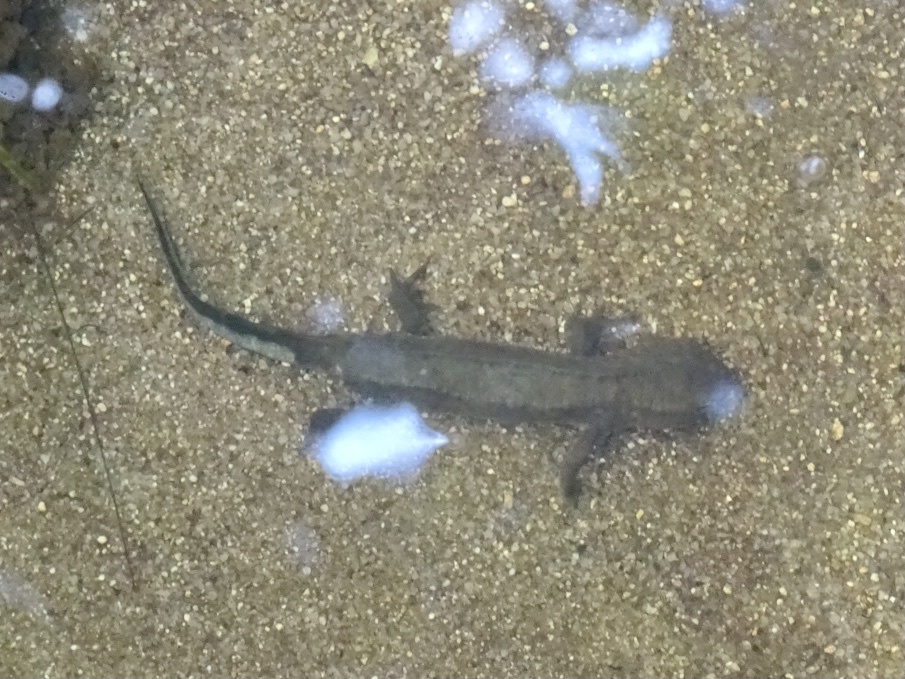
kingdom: Animalia
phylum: Chordata
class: Amphibia
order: Caudata
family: Salamandridae
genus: Paramesotriton
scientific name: Paramesotriton hongkongensis
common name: Hong kong warty newt
